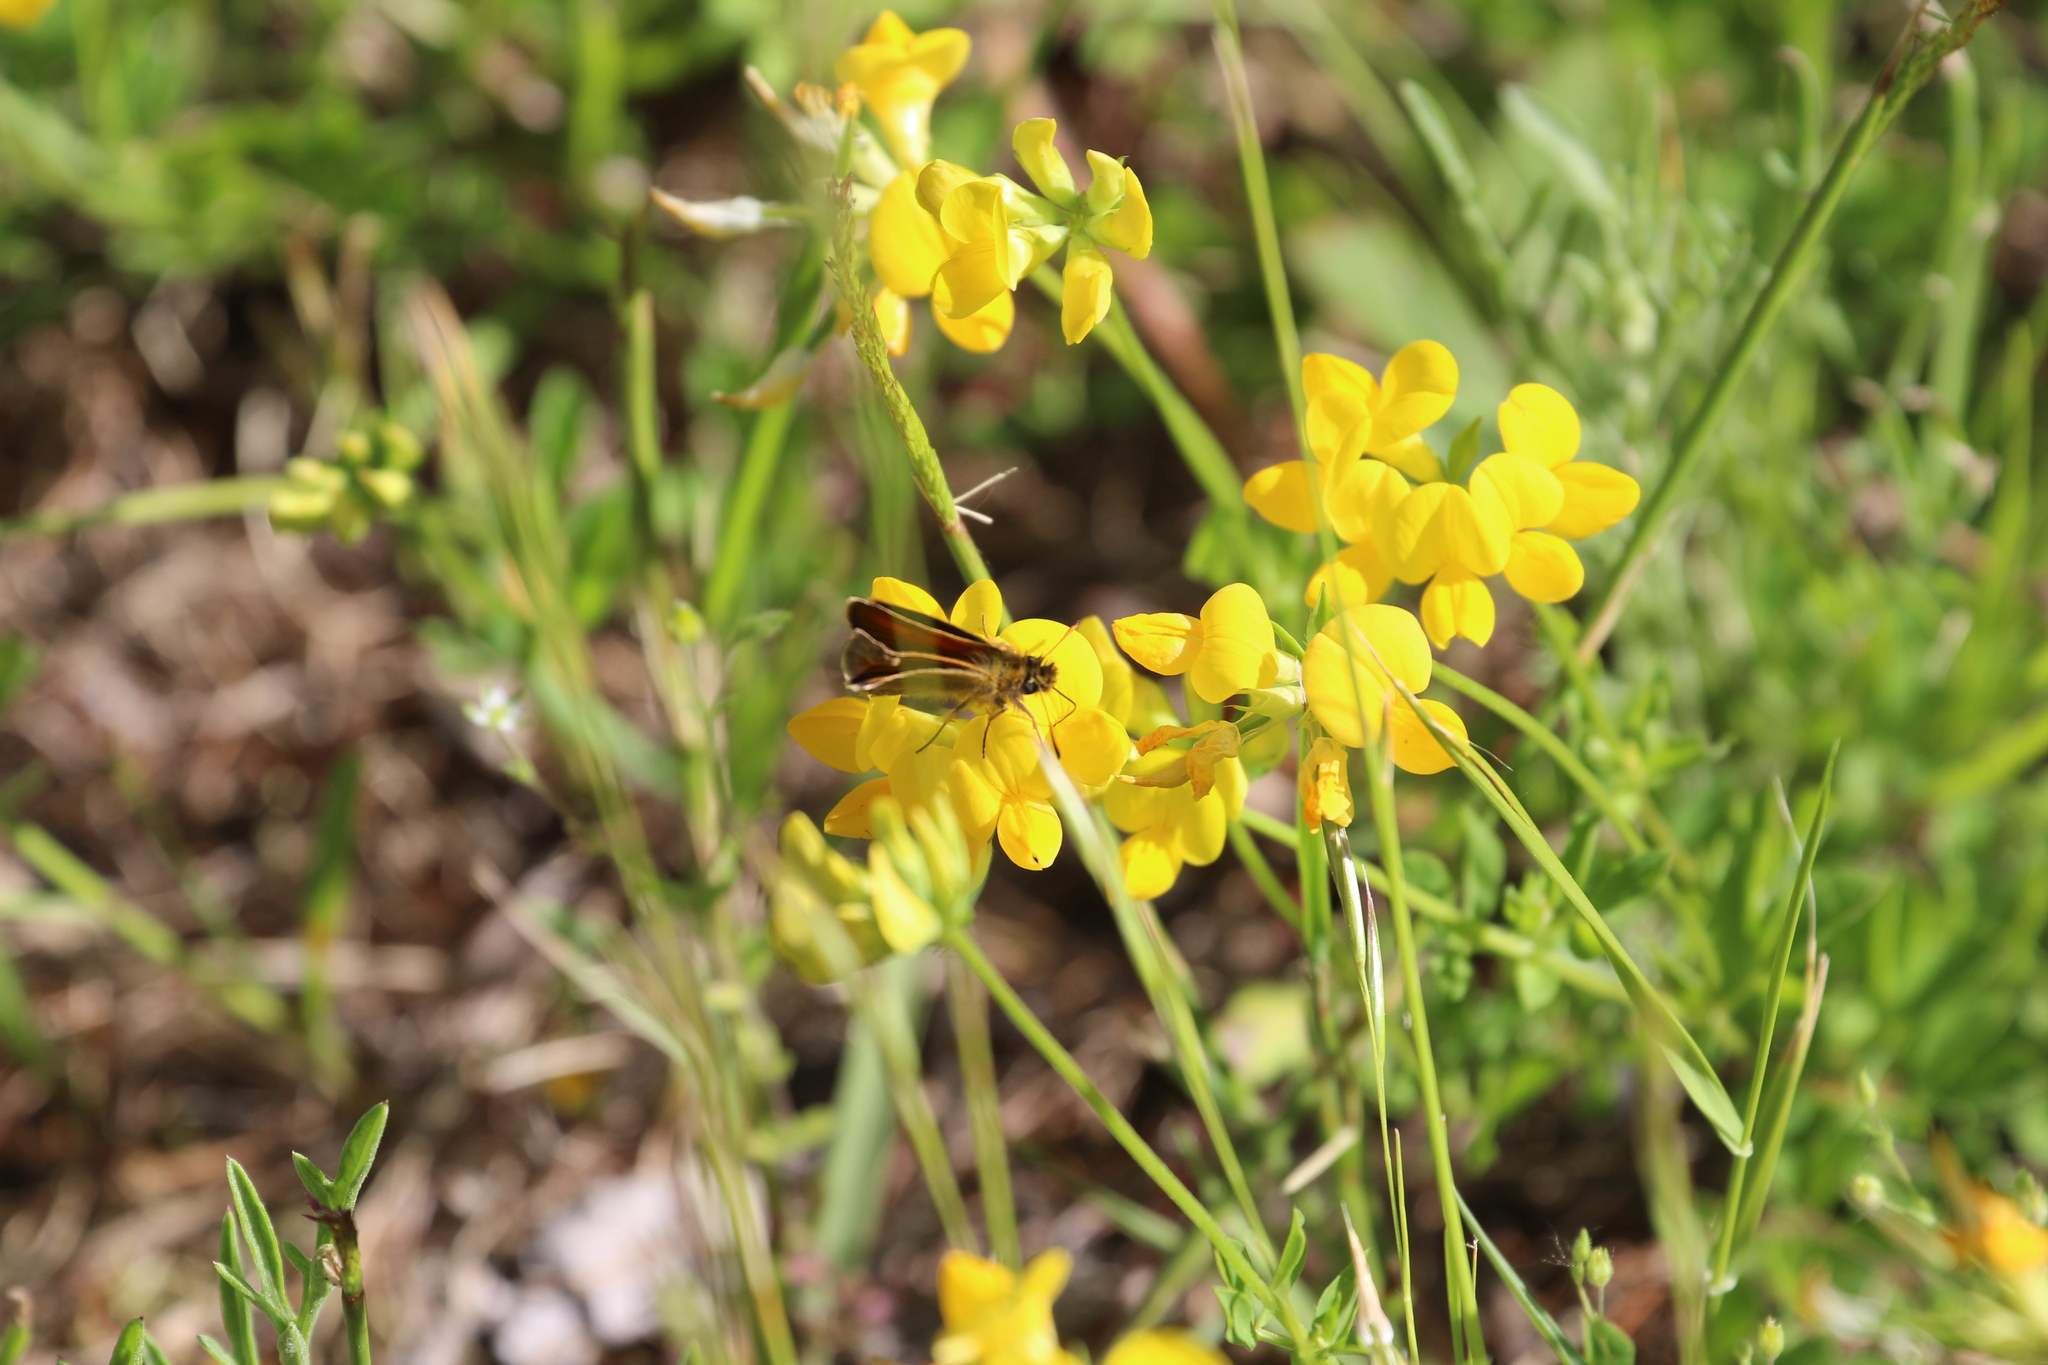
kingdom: Animalia
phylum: Arthropoda
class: Insecta
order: Lepidoptera
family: Hesperiidae
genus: Thymelicus
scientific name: Thymelicus lineola
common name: Essex skipper
